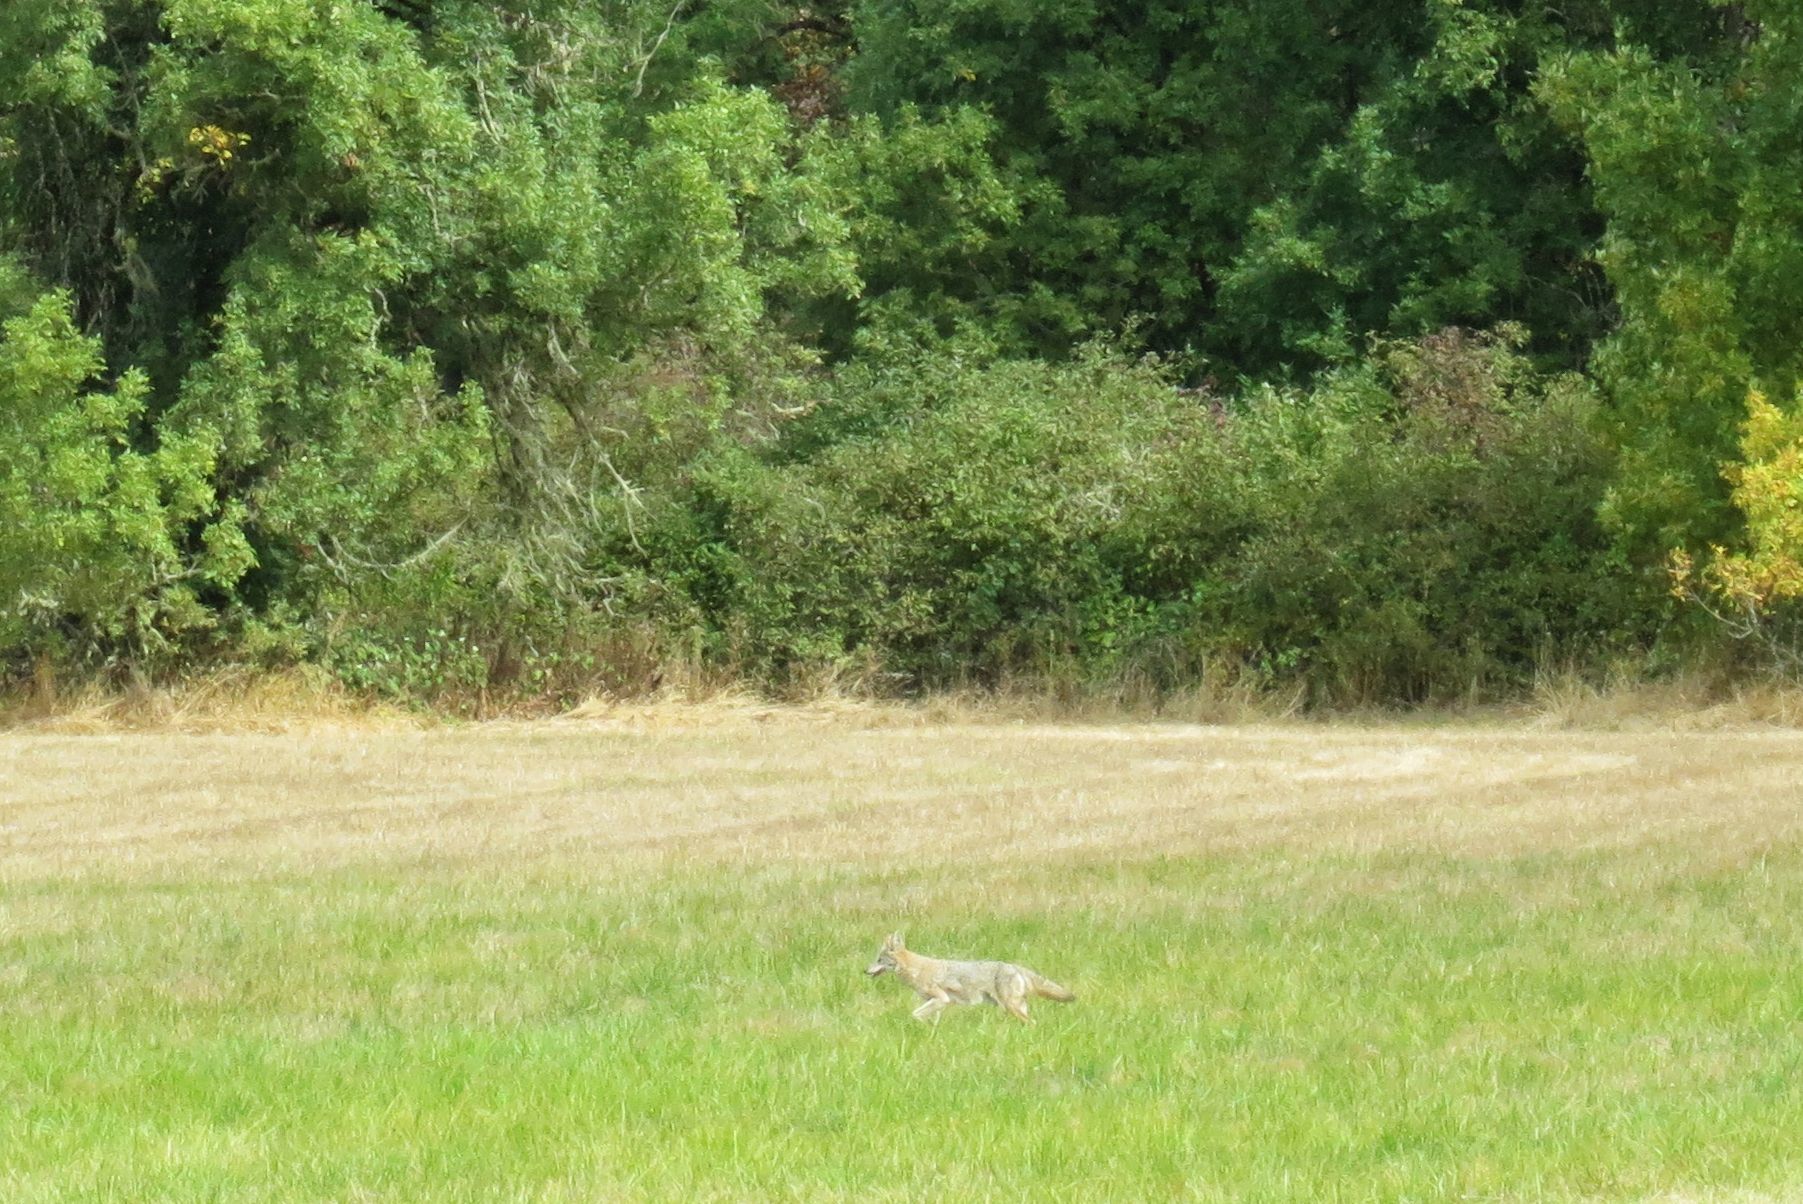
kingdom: Animalia
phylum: Chordata
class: Mammalia
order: Carnivora
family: Canidae
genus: Canis
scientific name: Canis latrans
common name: Coyote
